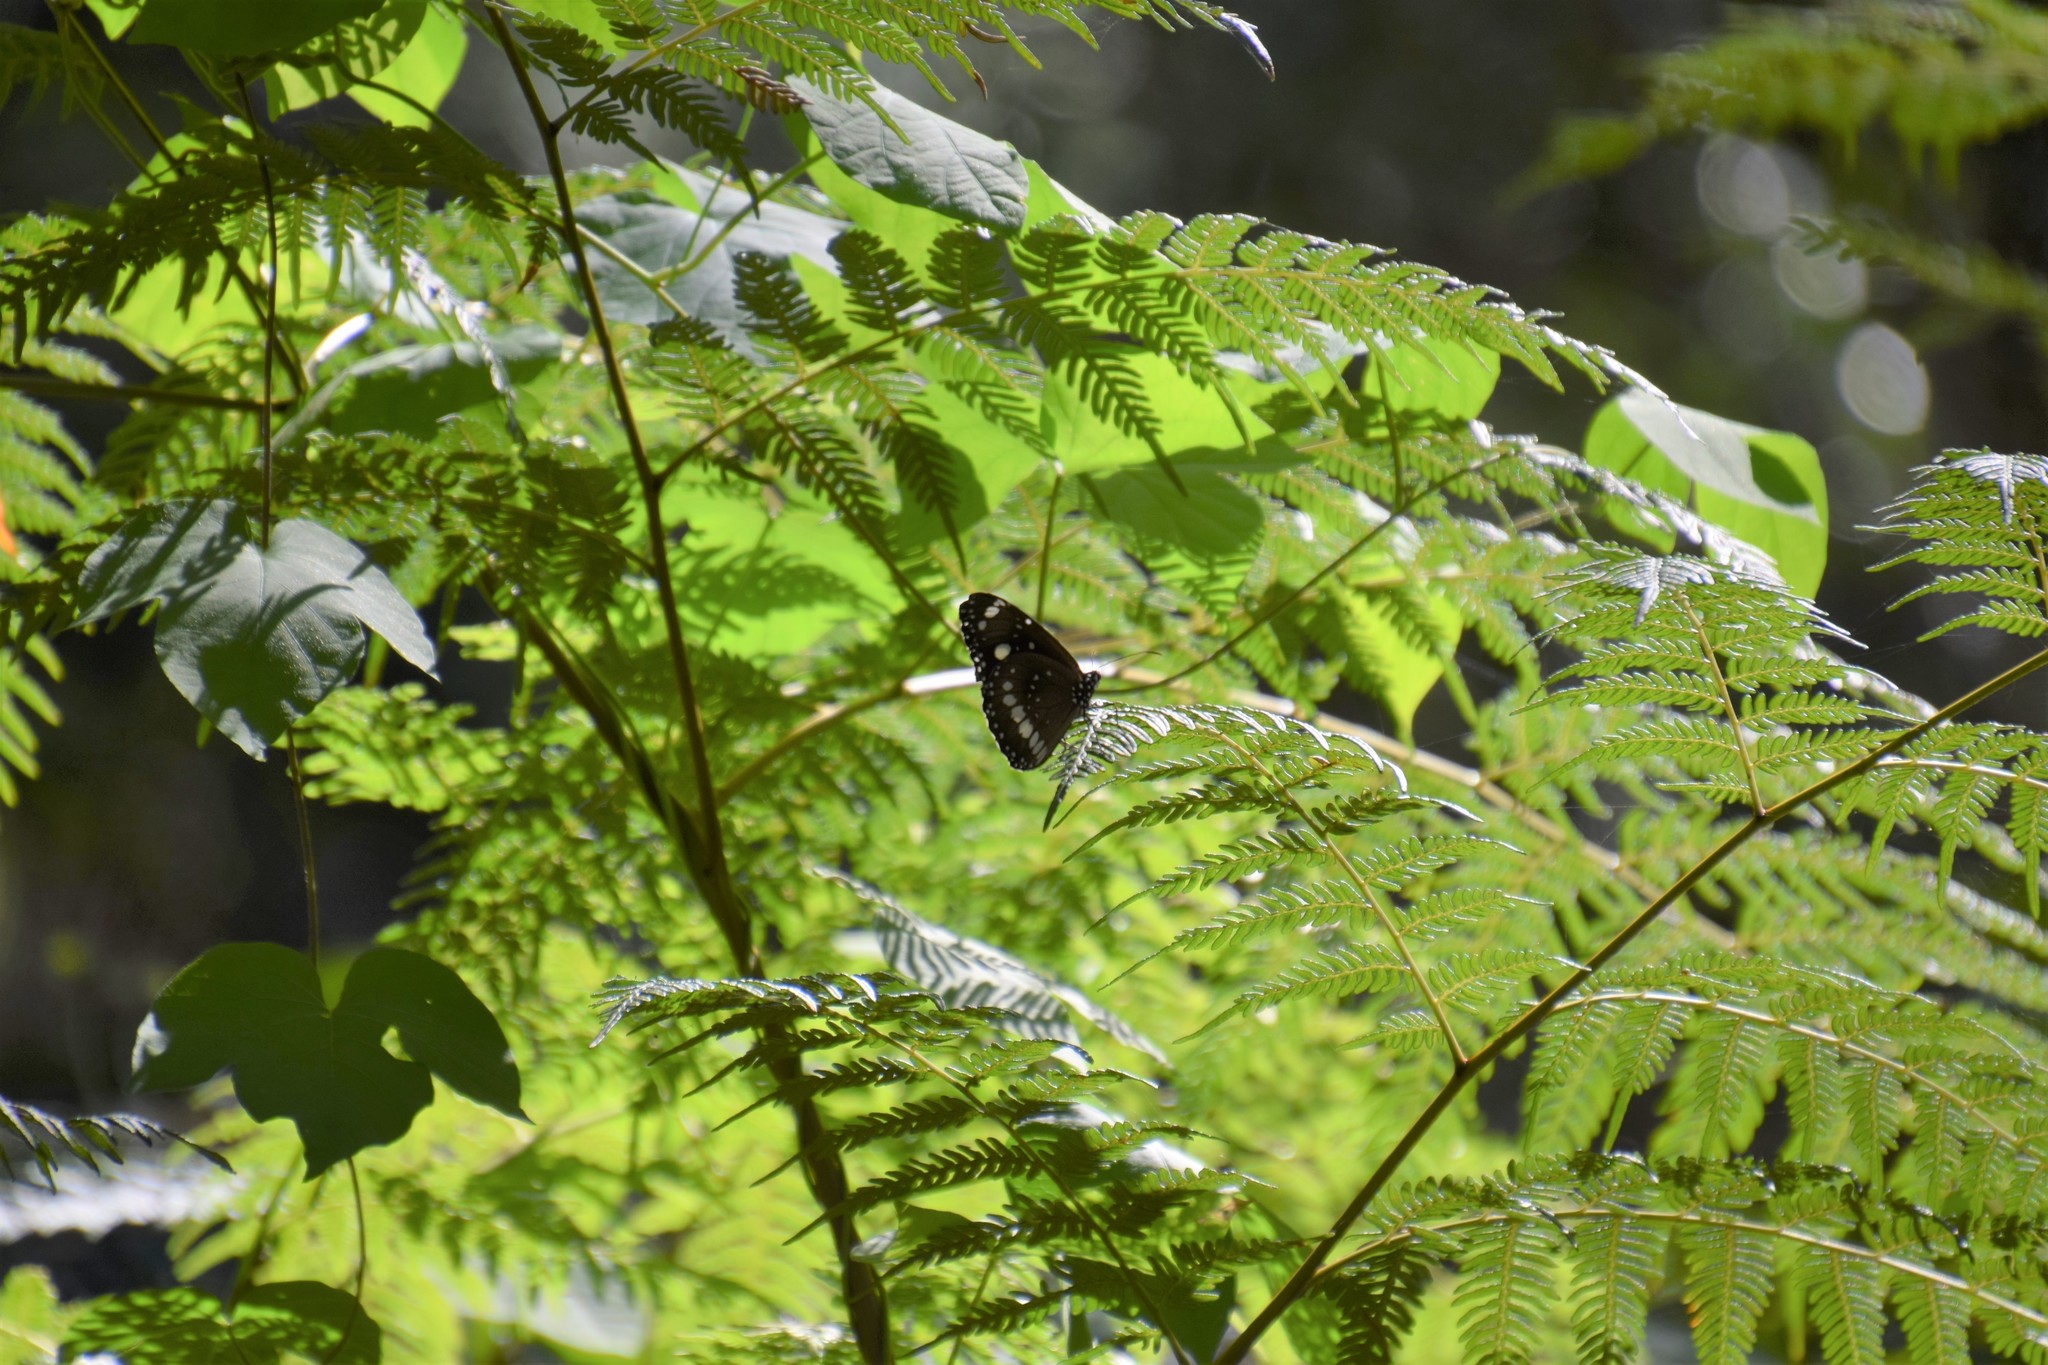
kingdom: Animalia
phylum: Arthropoda
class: Insecta
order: Lepidoptera
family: Nymphalidae
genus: Euploea
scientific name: Euploea core
